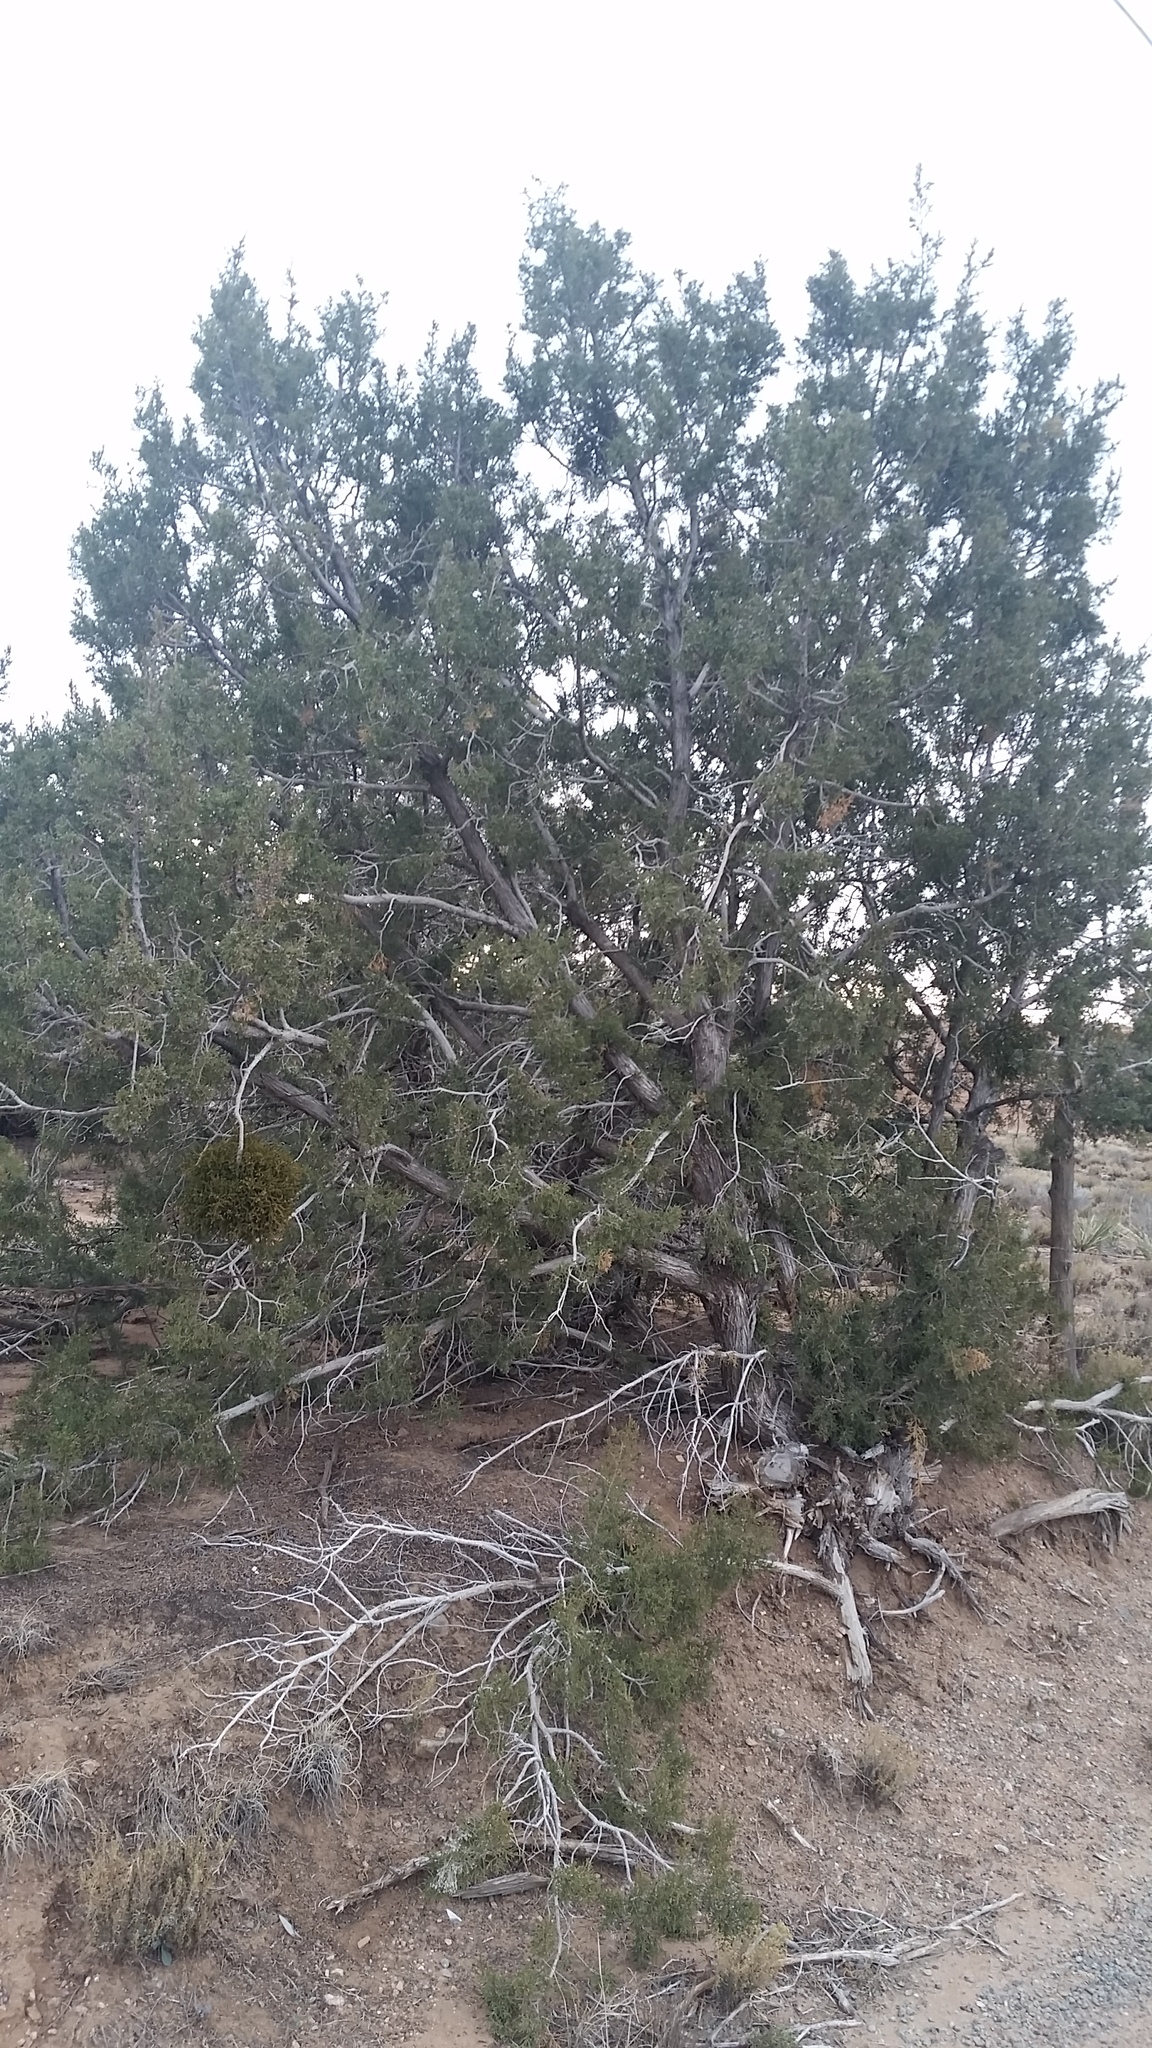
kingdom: Plantae
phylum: Tracheophyta
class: Pinopsida
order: Pinales
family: Cupressaceae
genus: Juniperus
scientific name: Juniperus monosperma
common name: One-seed juniper
